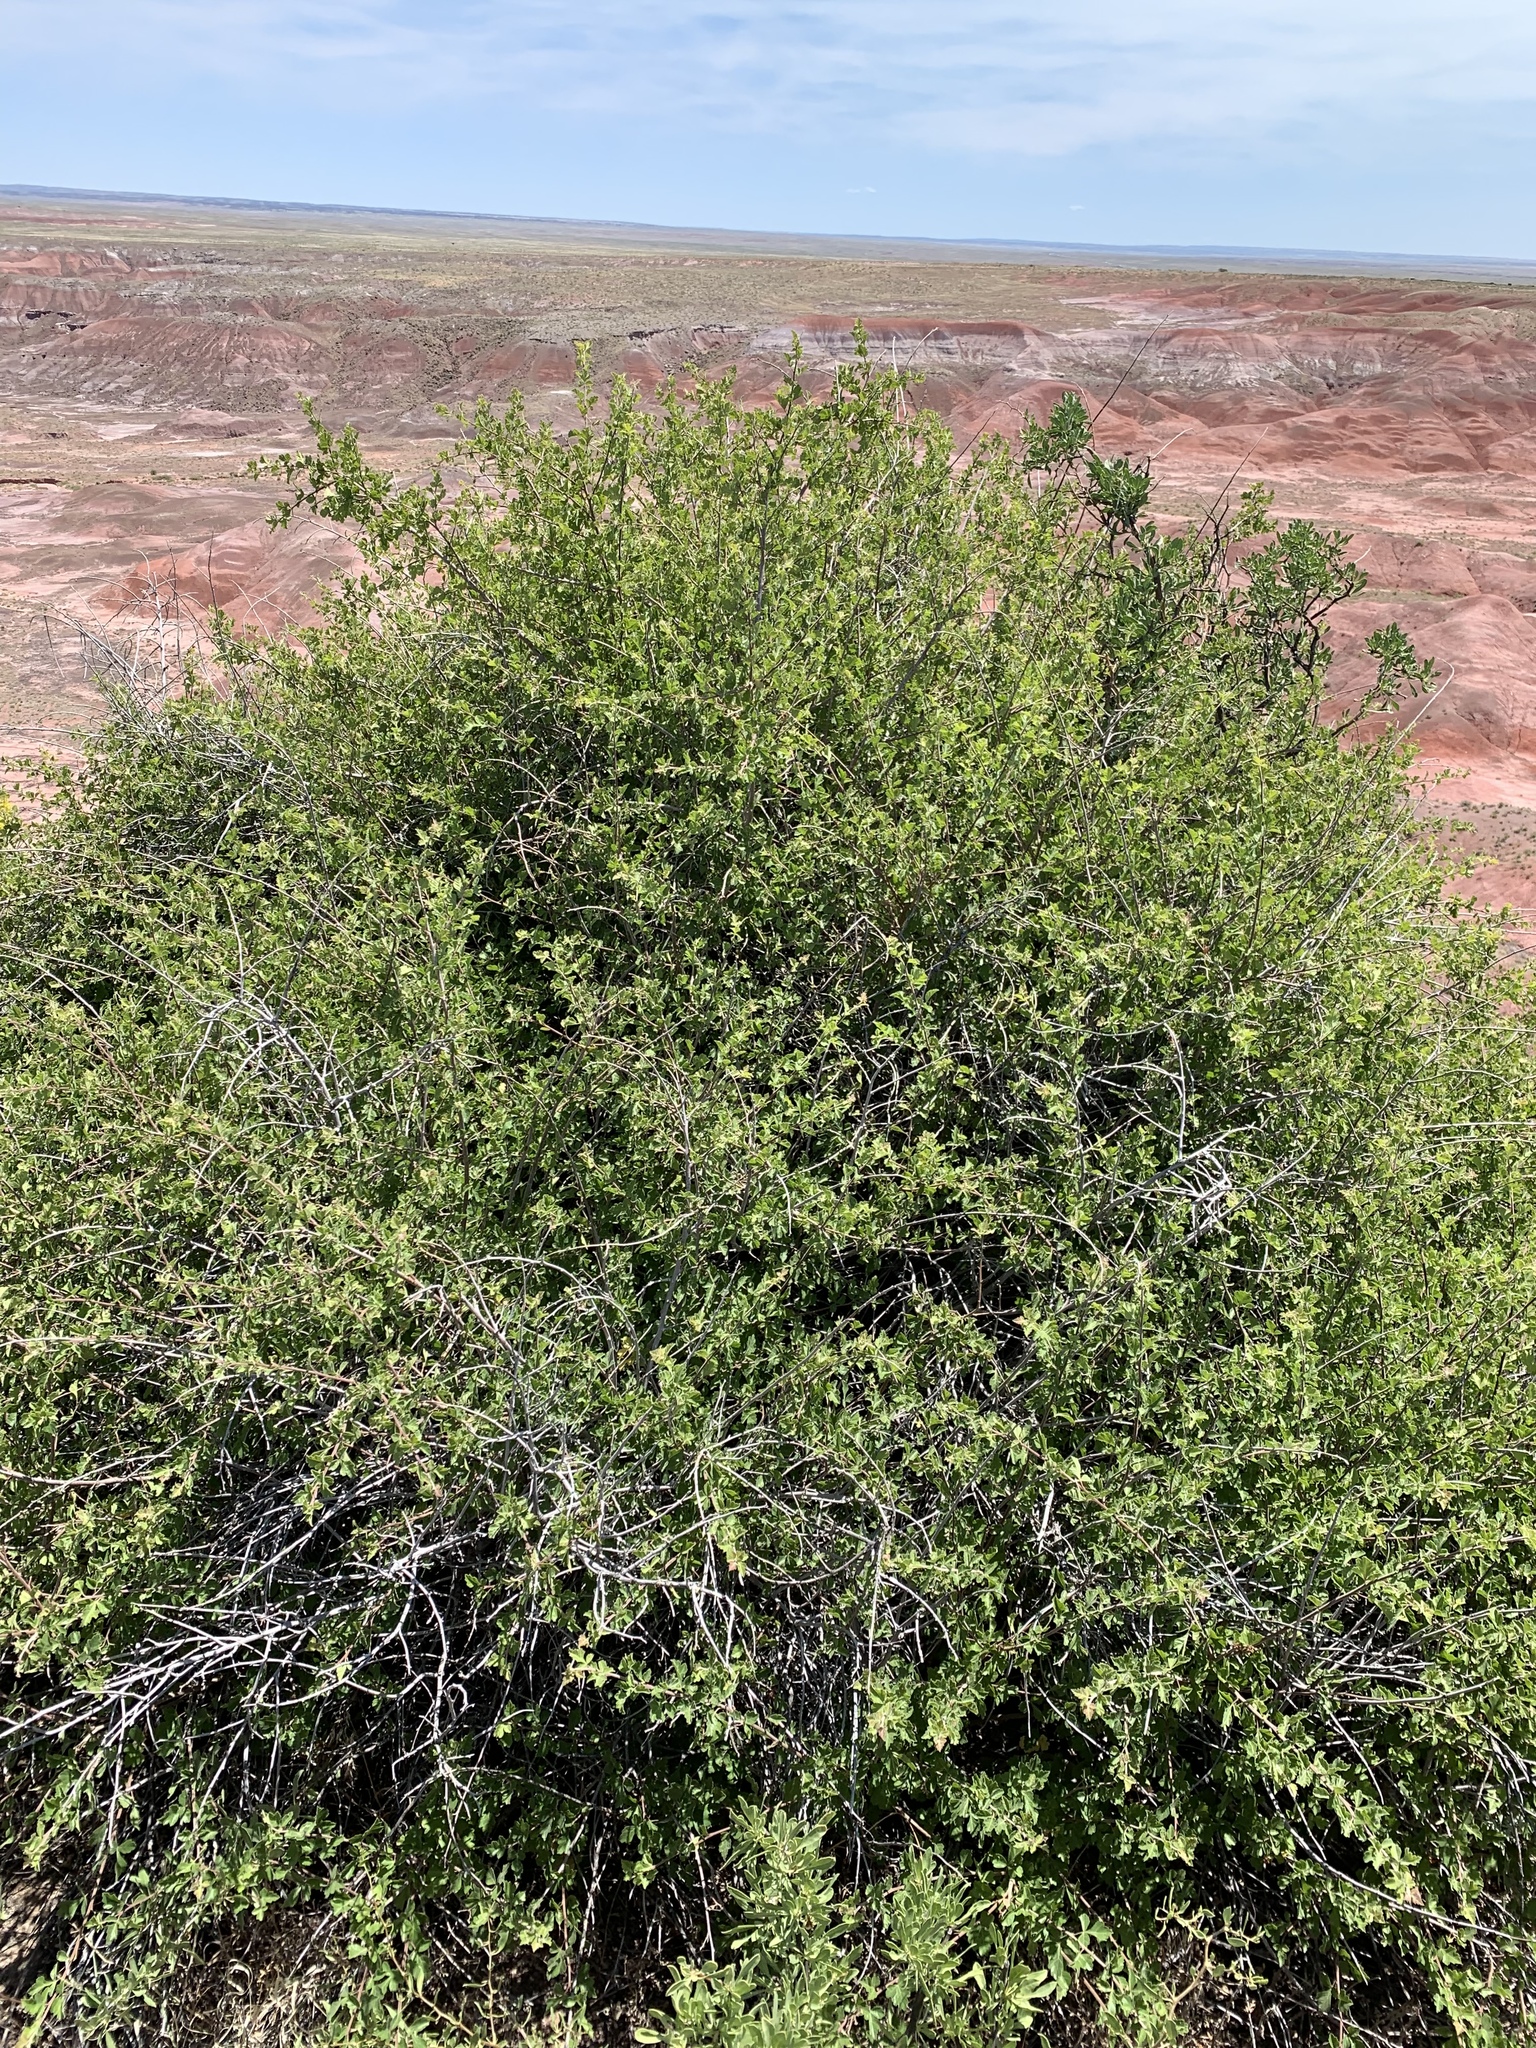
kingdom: Plantae
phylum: Tracheophyta
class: Magnoliopsida
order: Sapindales
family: Anacardiaceae
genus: Rhus
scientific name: Rhus aromatica
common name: Aromatic sumac
